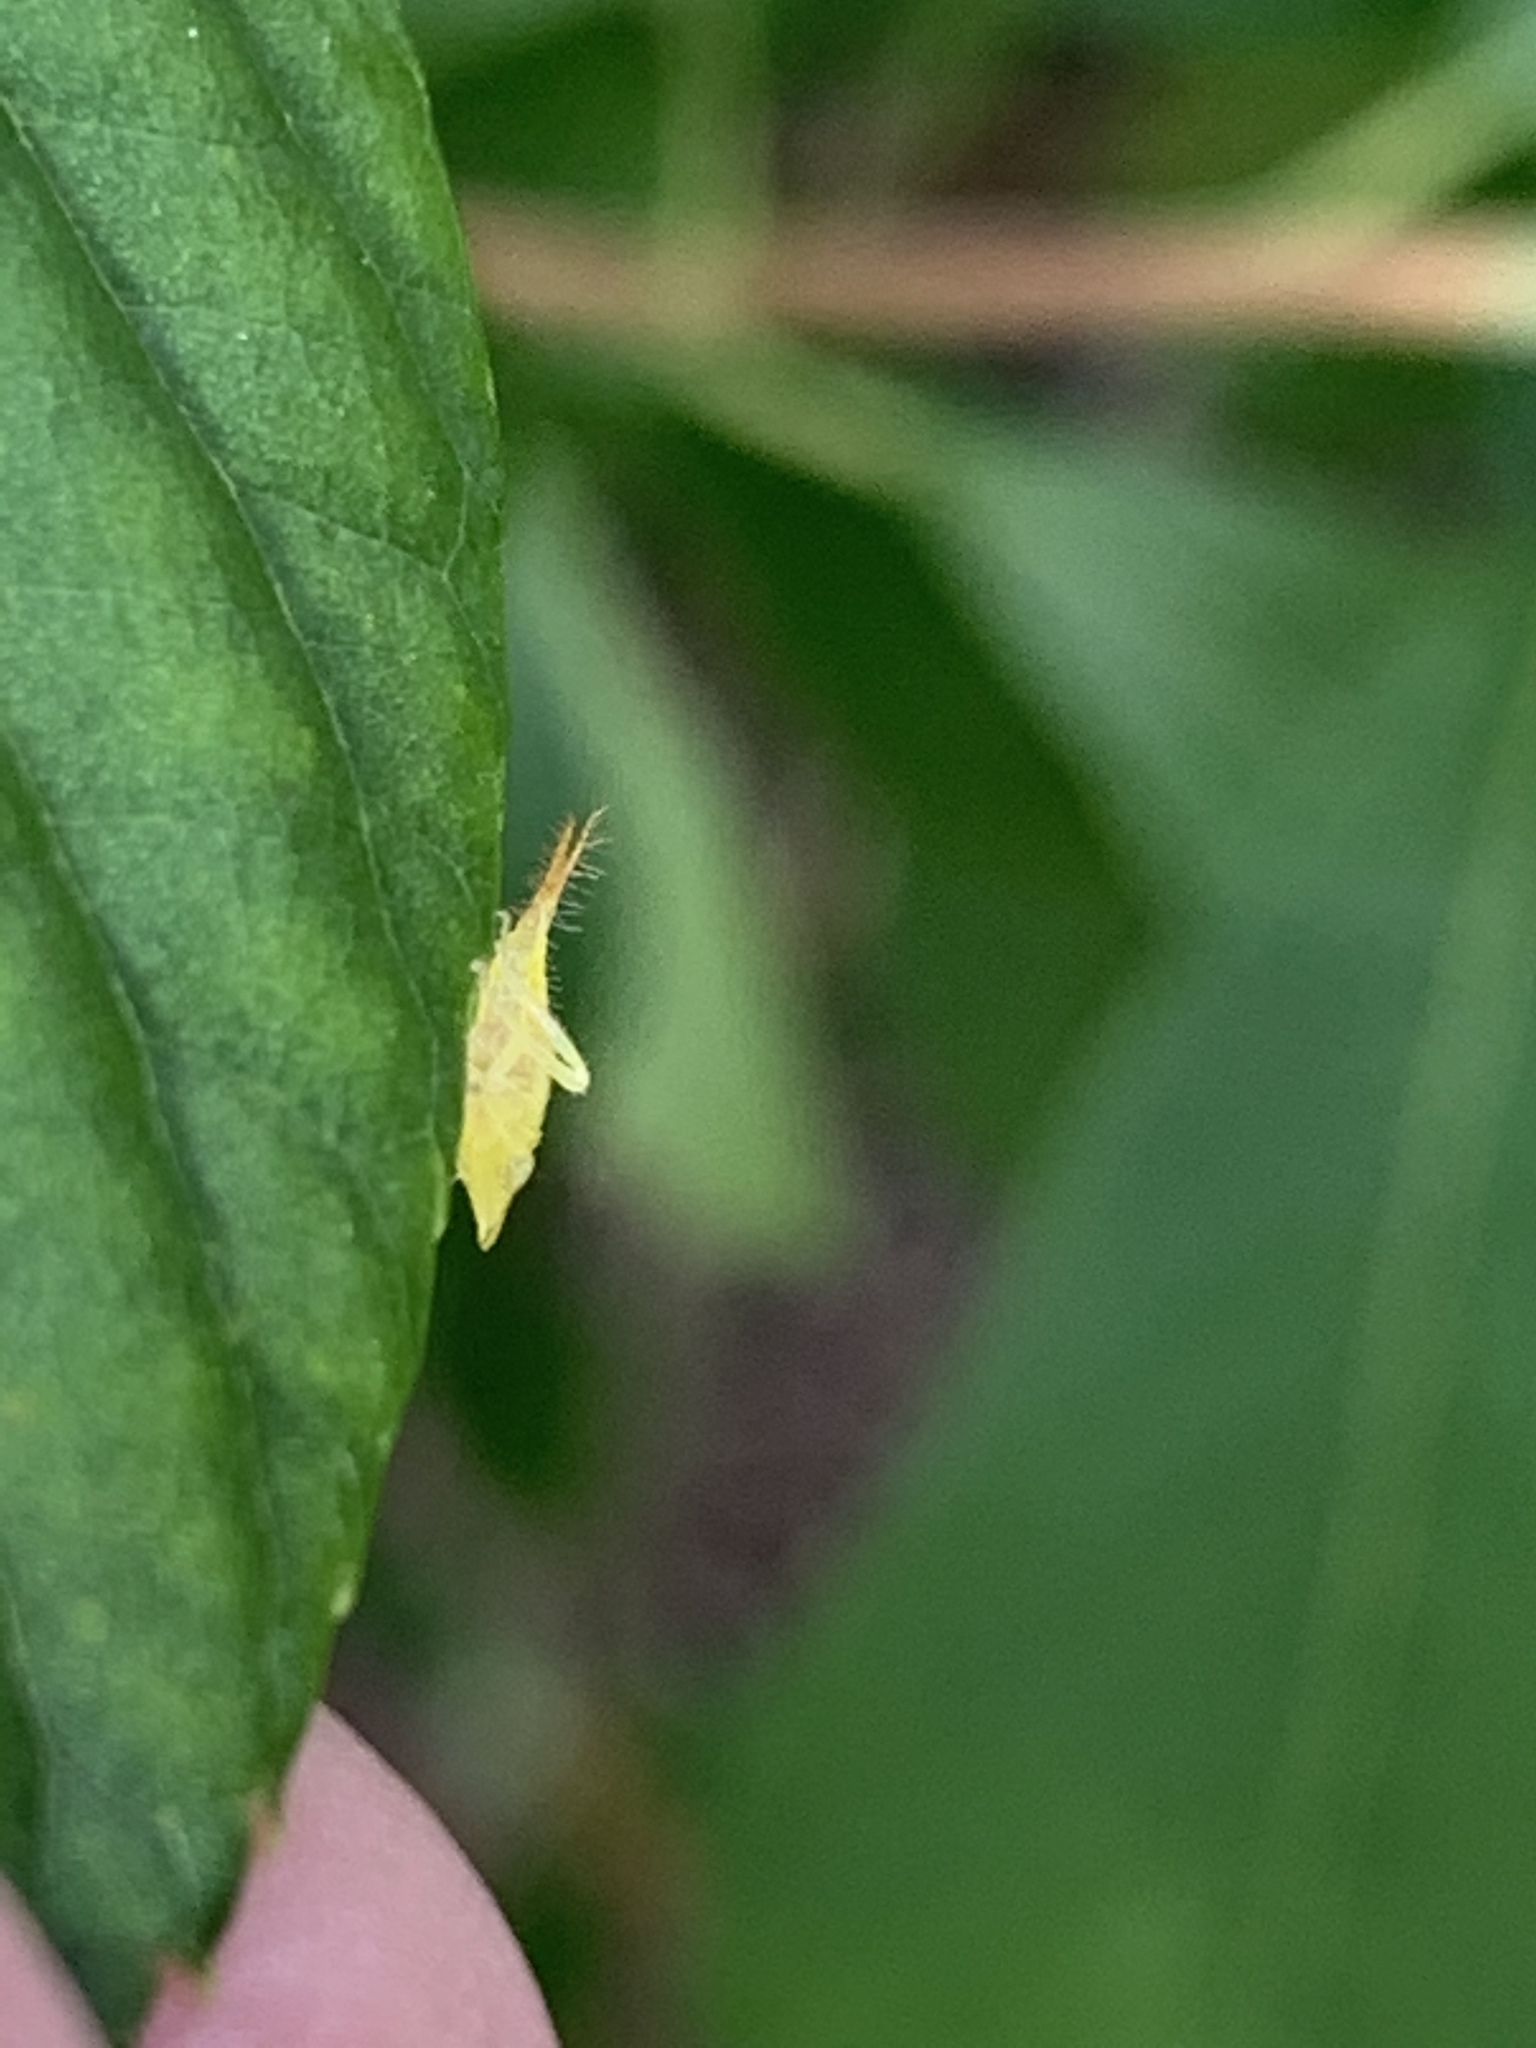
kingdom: Animalia
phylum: Arthropoda
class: Insecta
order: Hemiptera
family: Cicadellidae
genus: Japananus
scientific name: Japananus hyalinus
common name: The japanese maple leafhopper
